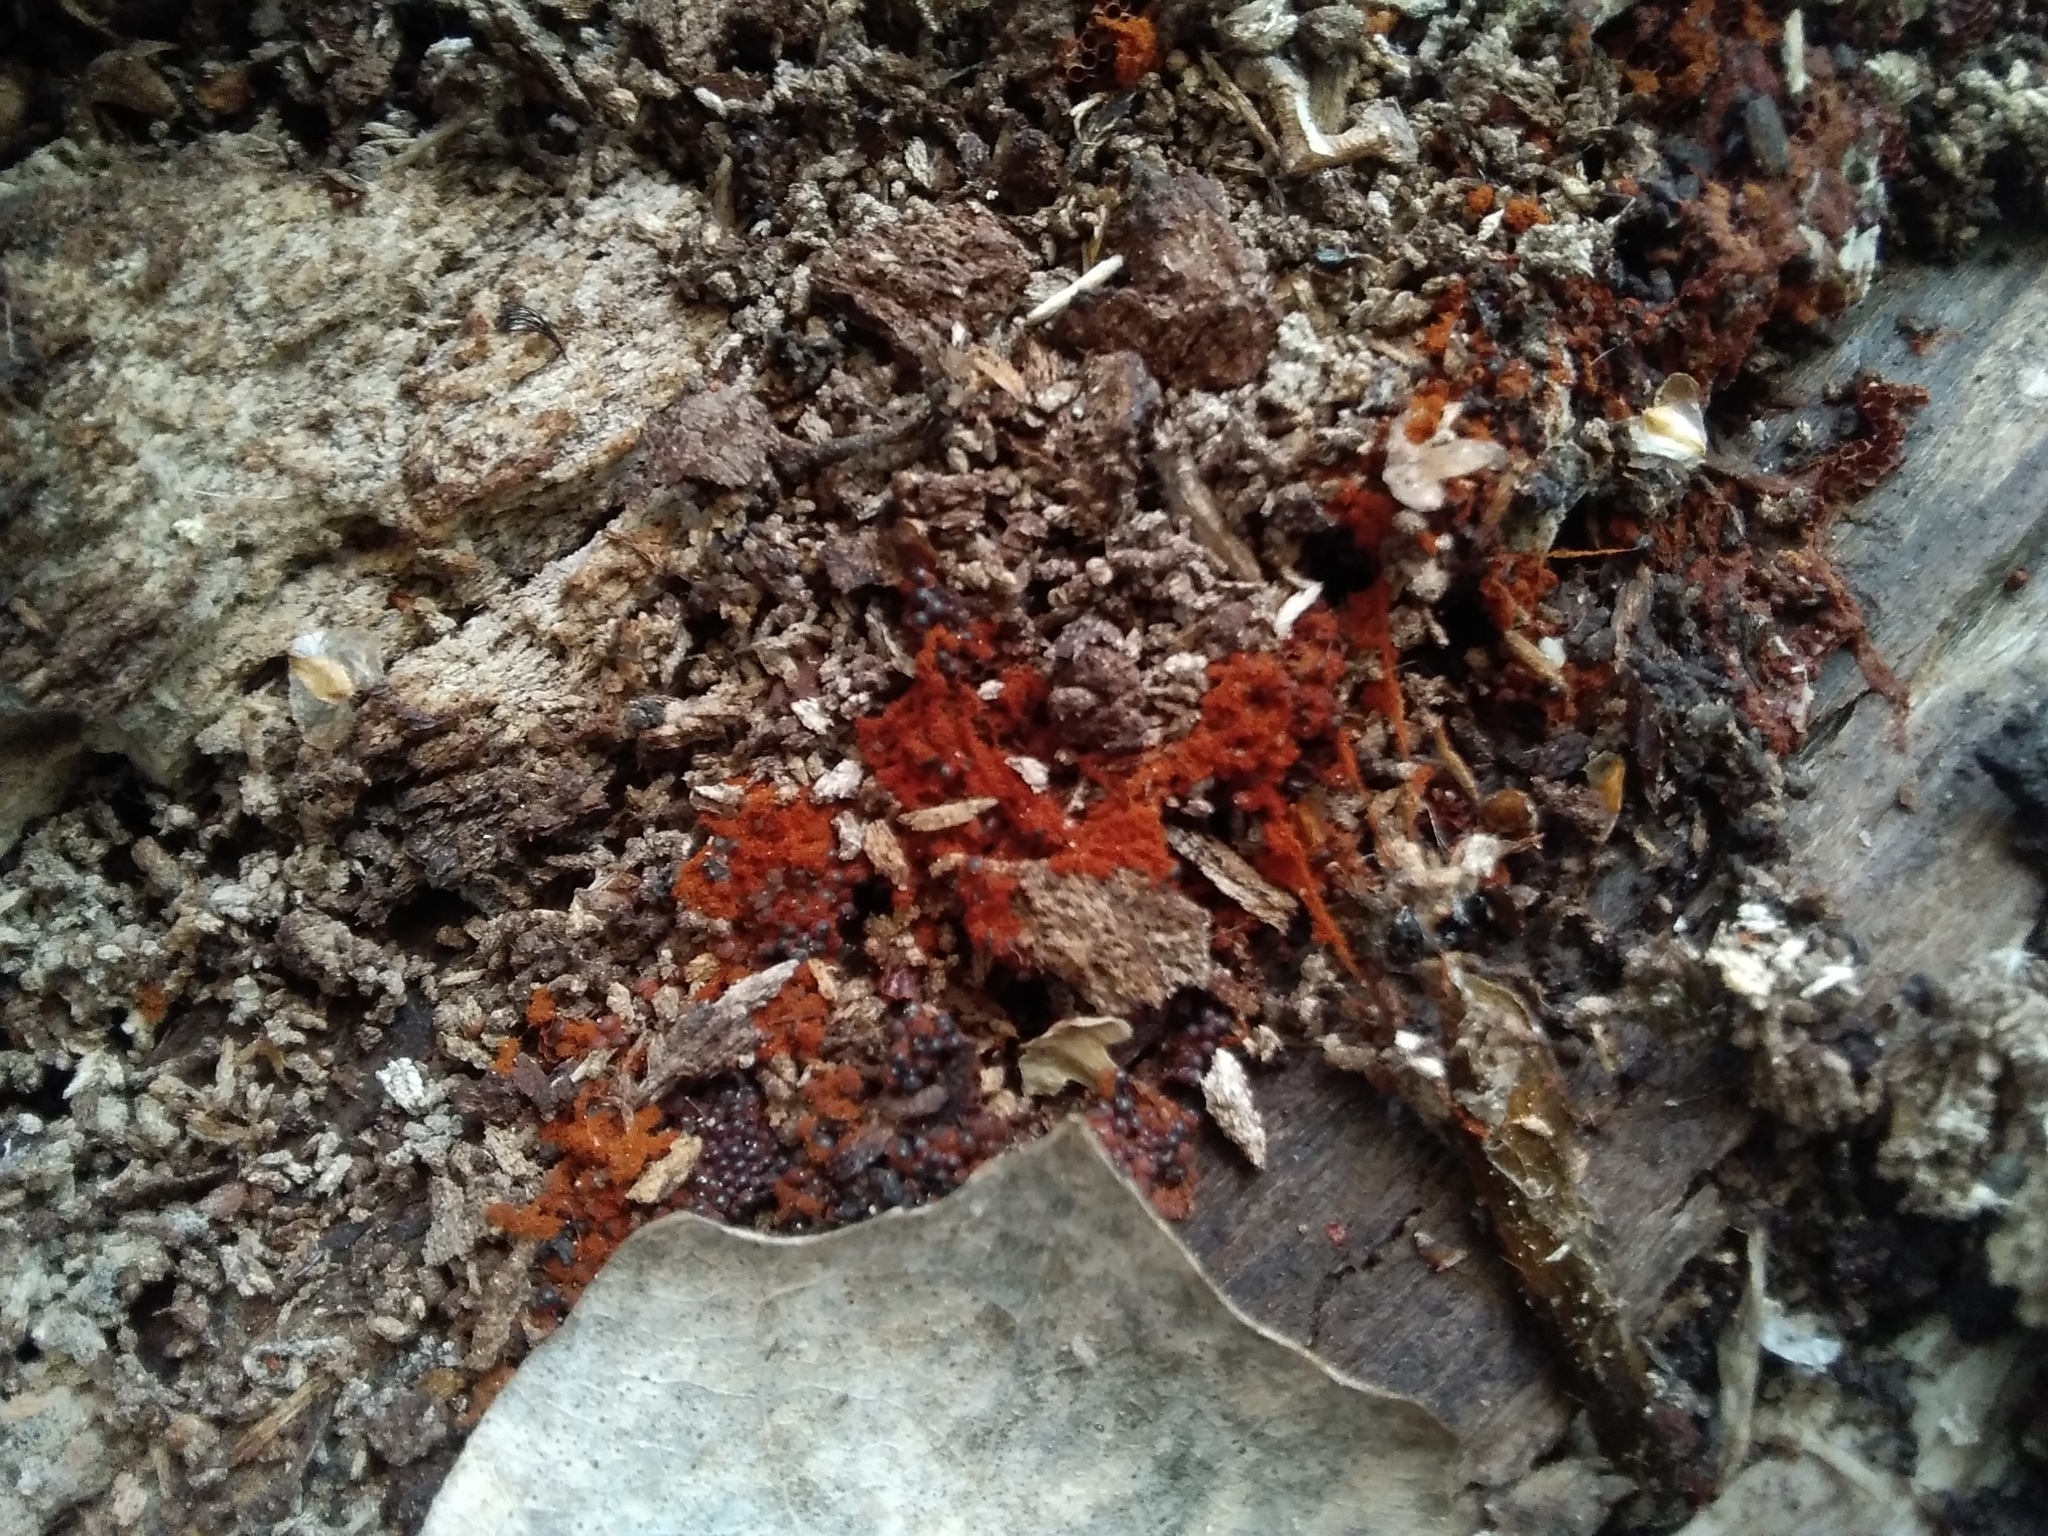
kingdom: Protozoa
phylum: Mycetozoa
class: Myxomycetes
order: Trichiales
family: Trichiaceae
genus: Metatrichia
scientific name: Metatrichia vesparia
